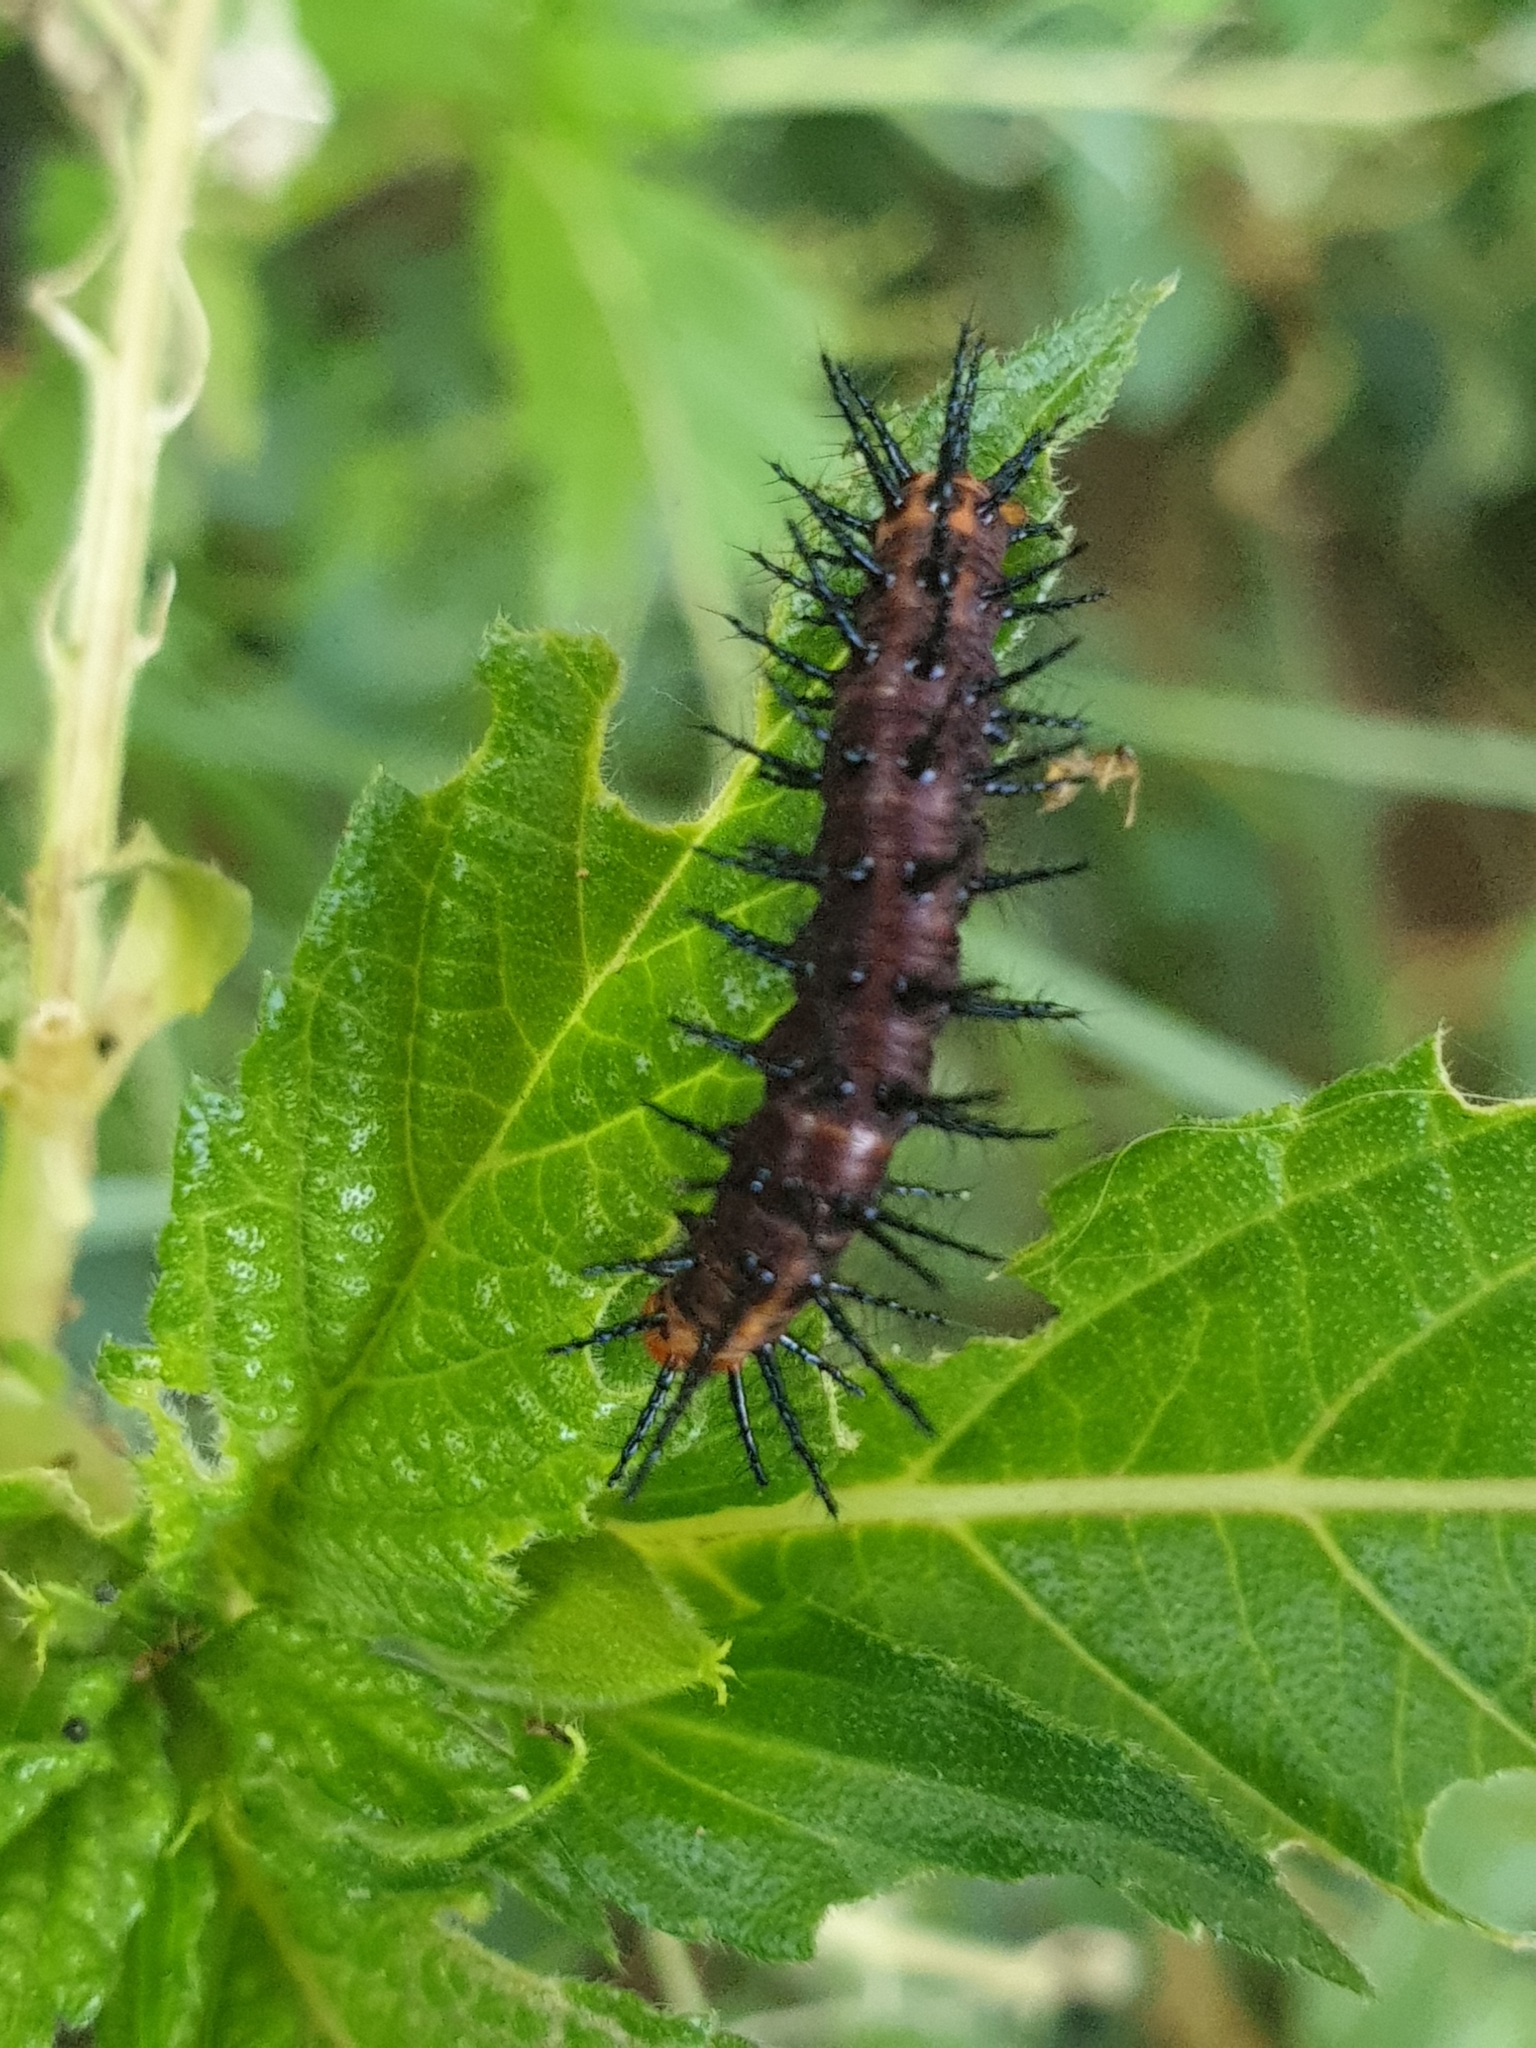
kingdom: Animalia
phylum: Arthropoda
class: Insecta
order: Lepidoptera
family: Nymphalidae
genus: Acraea
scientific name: Acraea terpsicore
